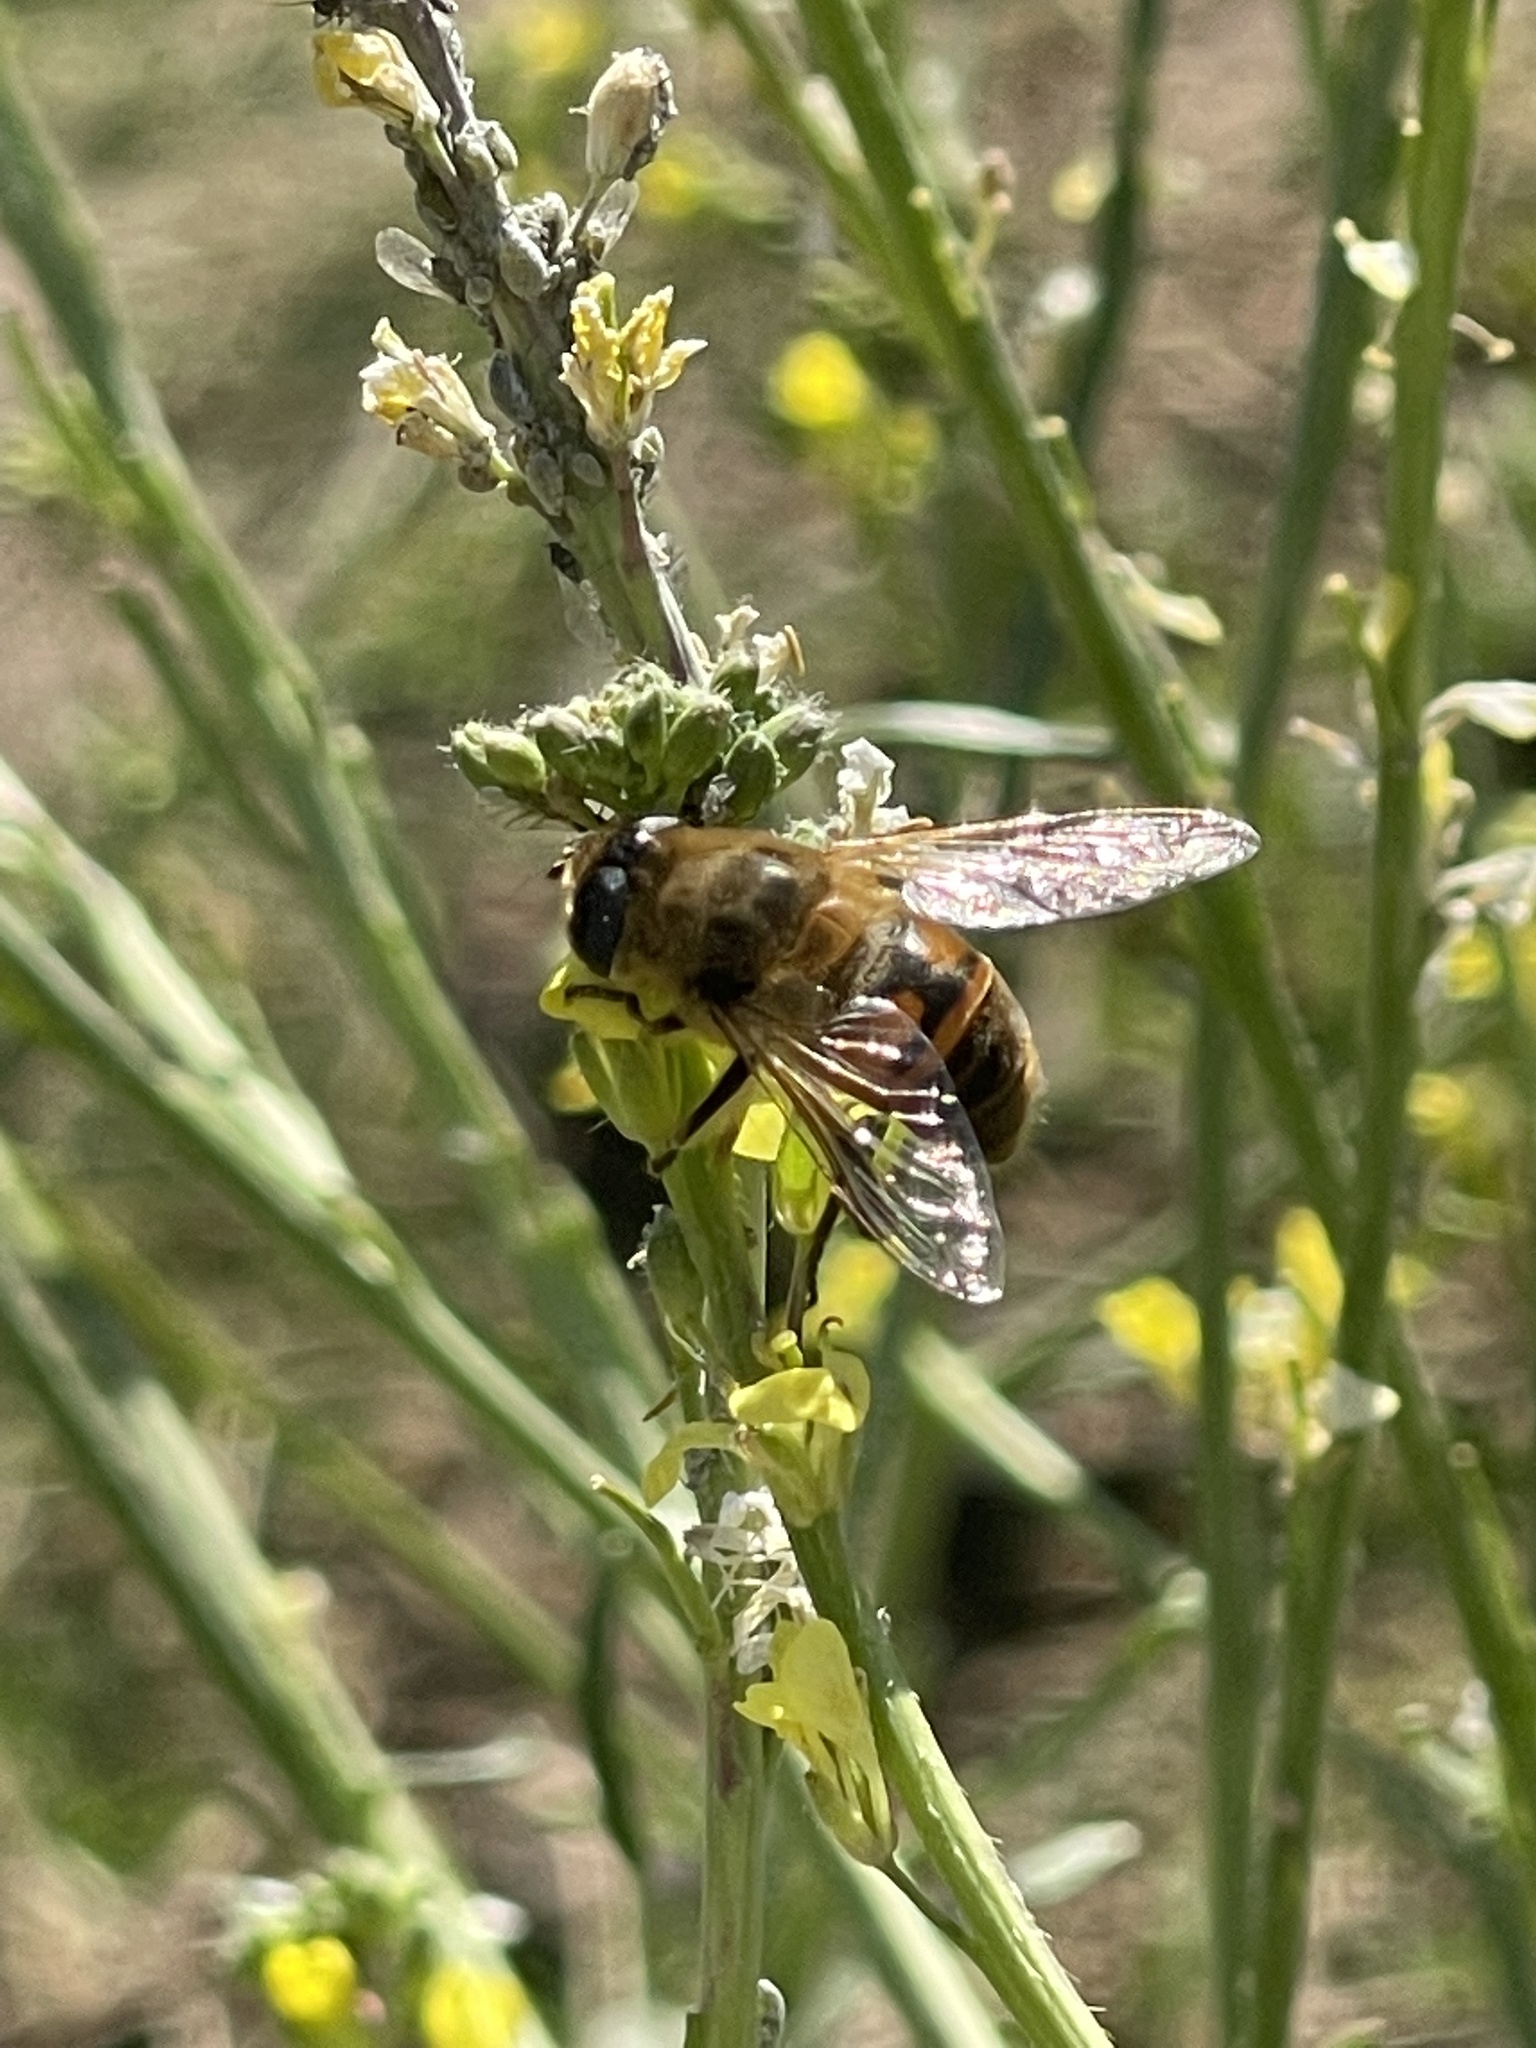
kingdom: Animalia
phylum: Arthropoda
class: Insecta
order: Diptera
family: Syrphidae
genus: Eristalis
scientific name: Eristalis tenax
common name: Drone fly
